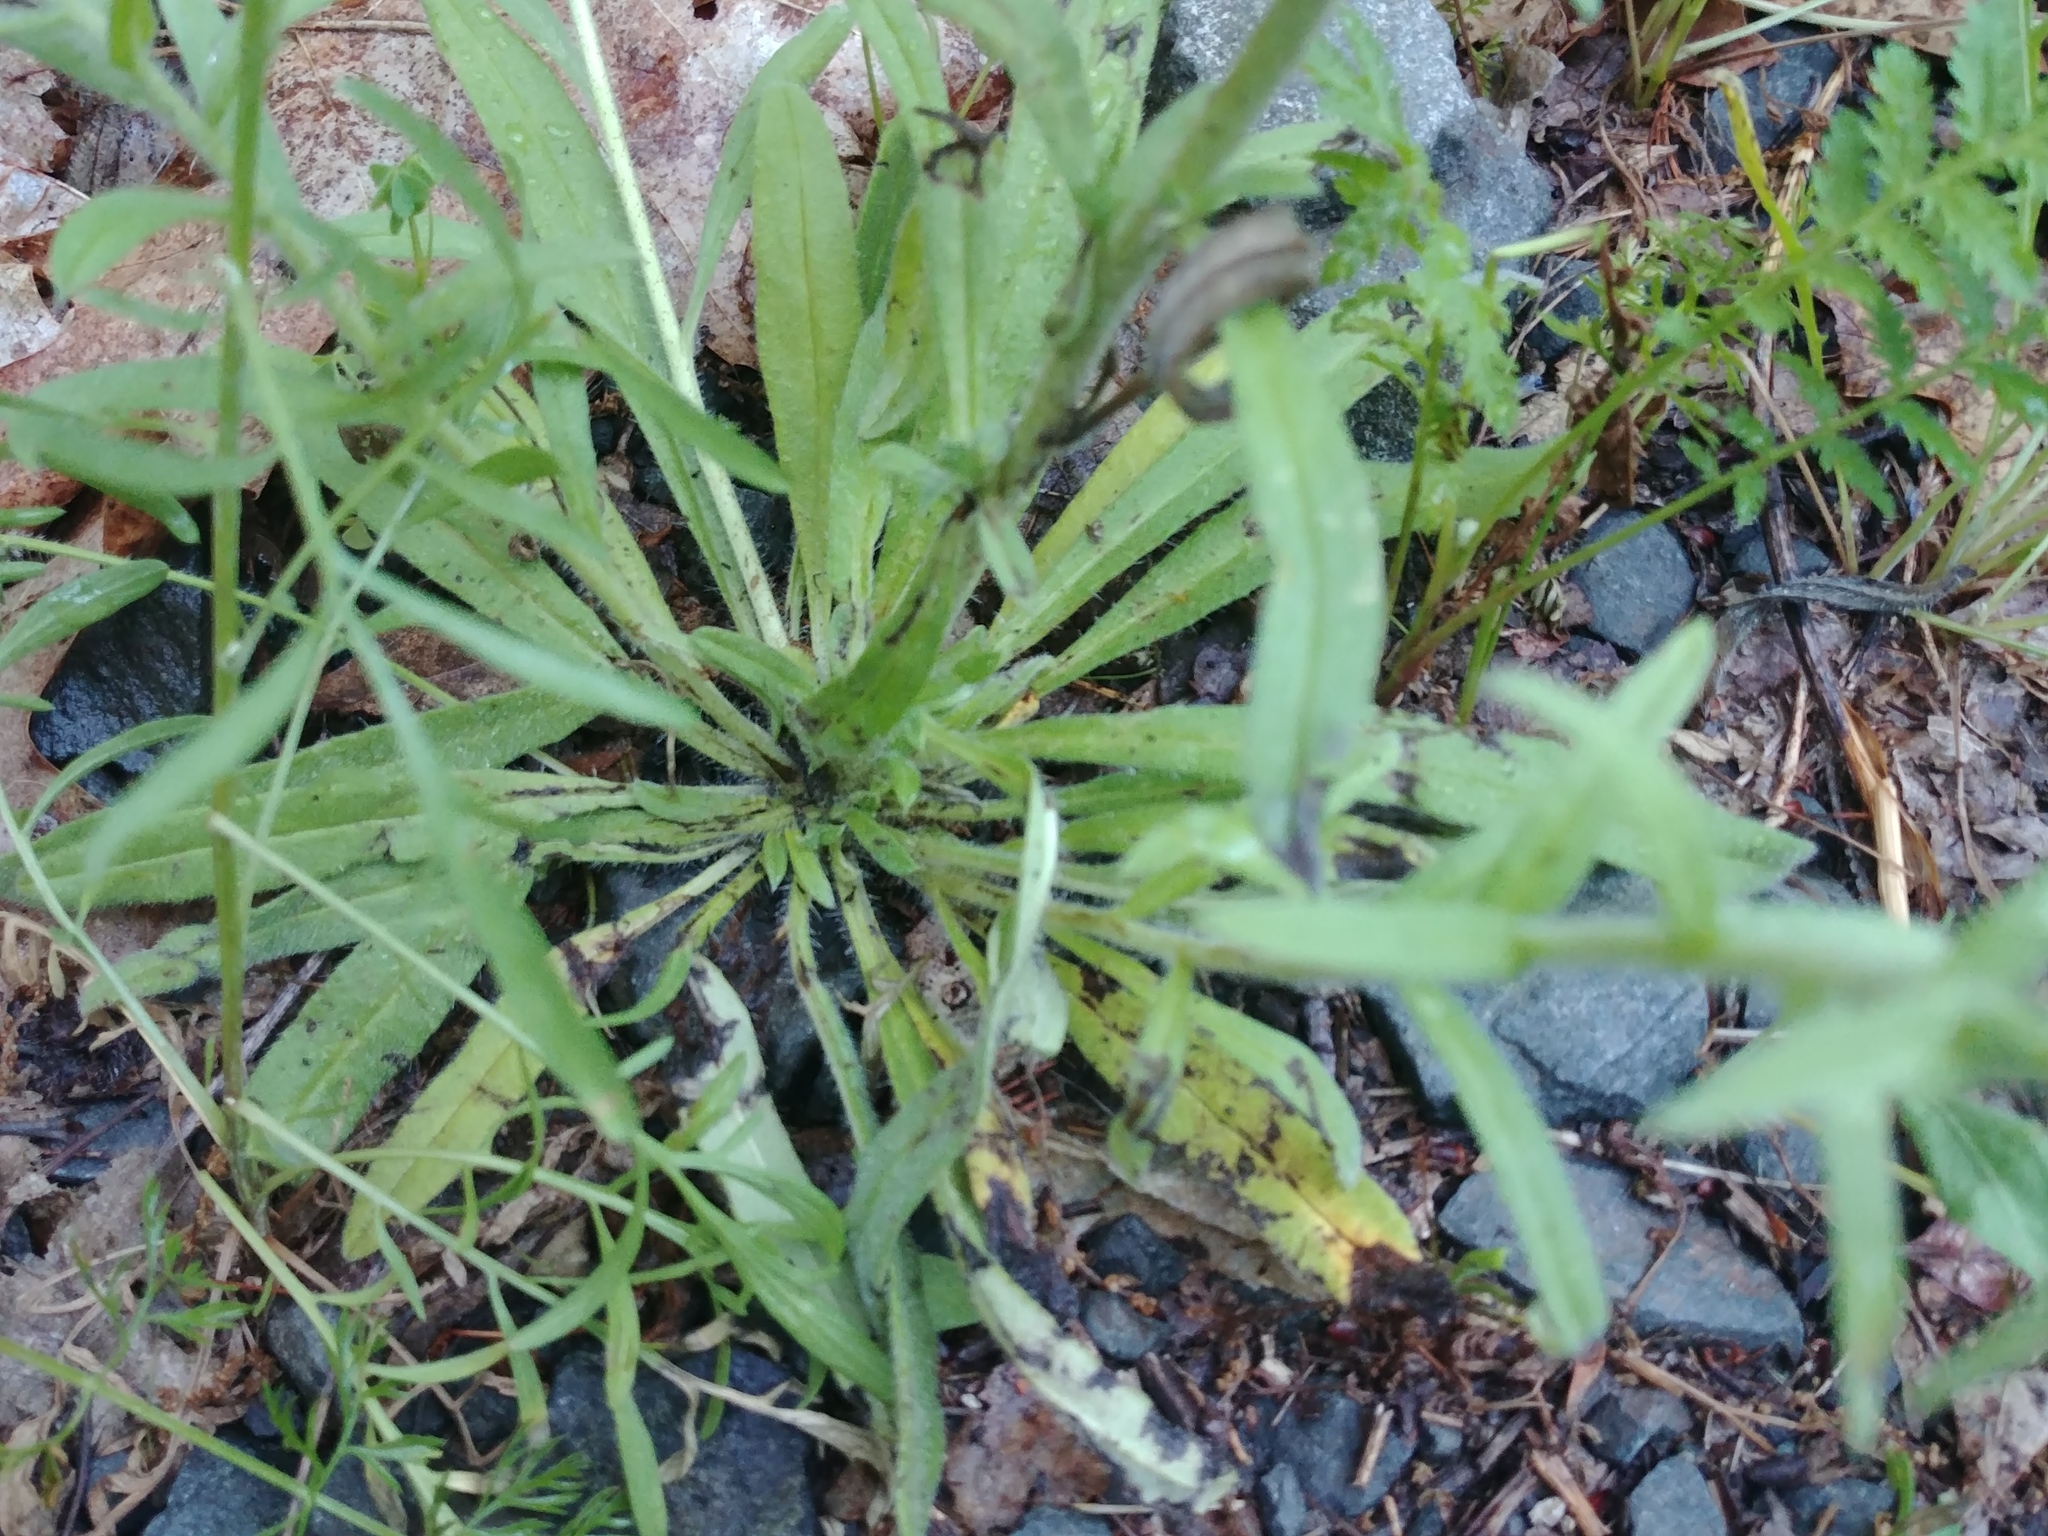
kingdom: Plantae
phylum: Tracheophyta
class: Magnoliopsida
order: Boraginales
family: Boraginaceae
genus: Echium
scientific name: Echium vulgare
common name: Common viper's bugloss
